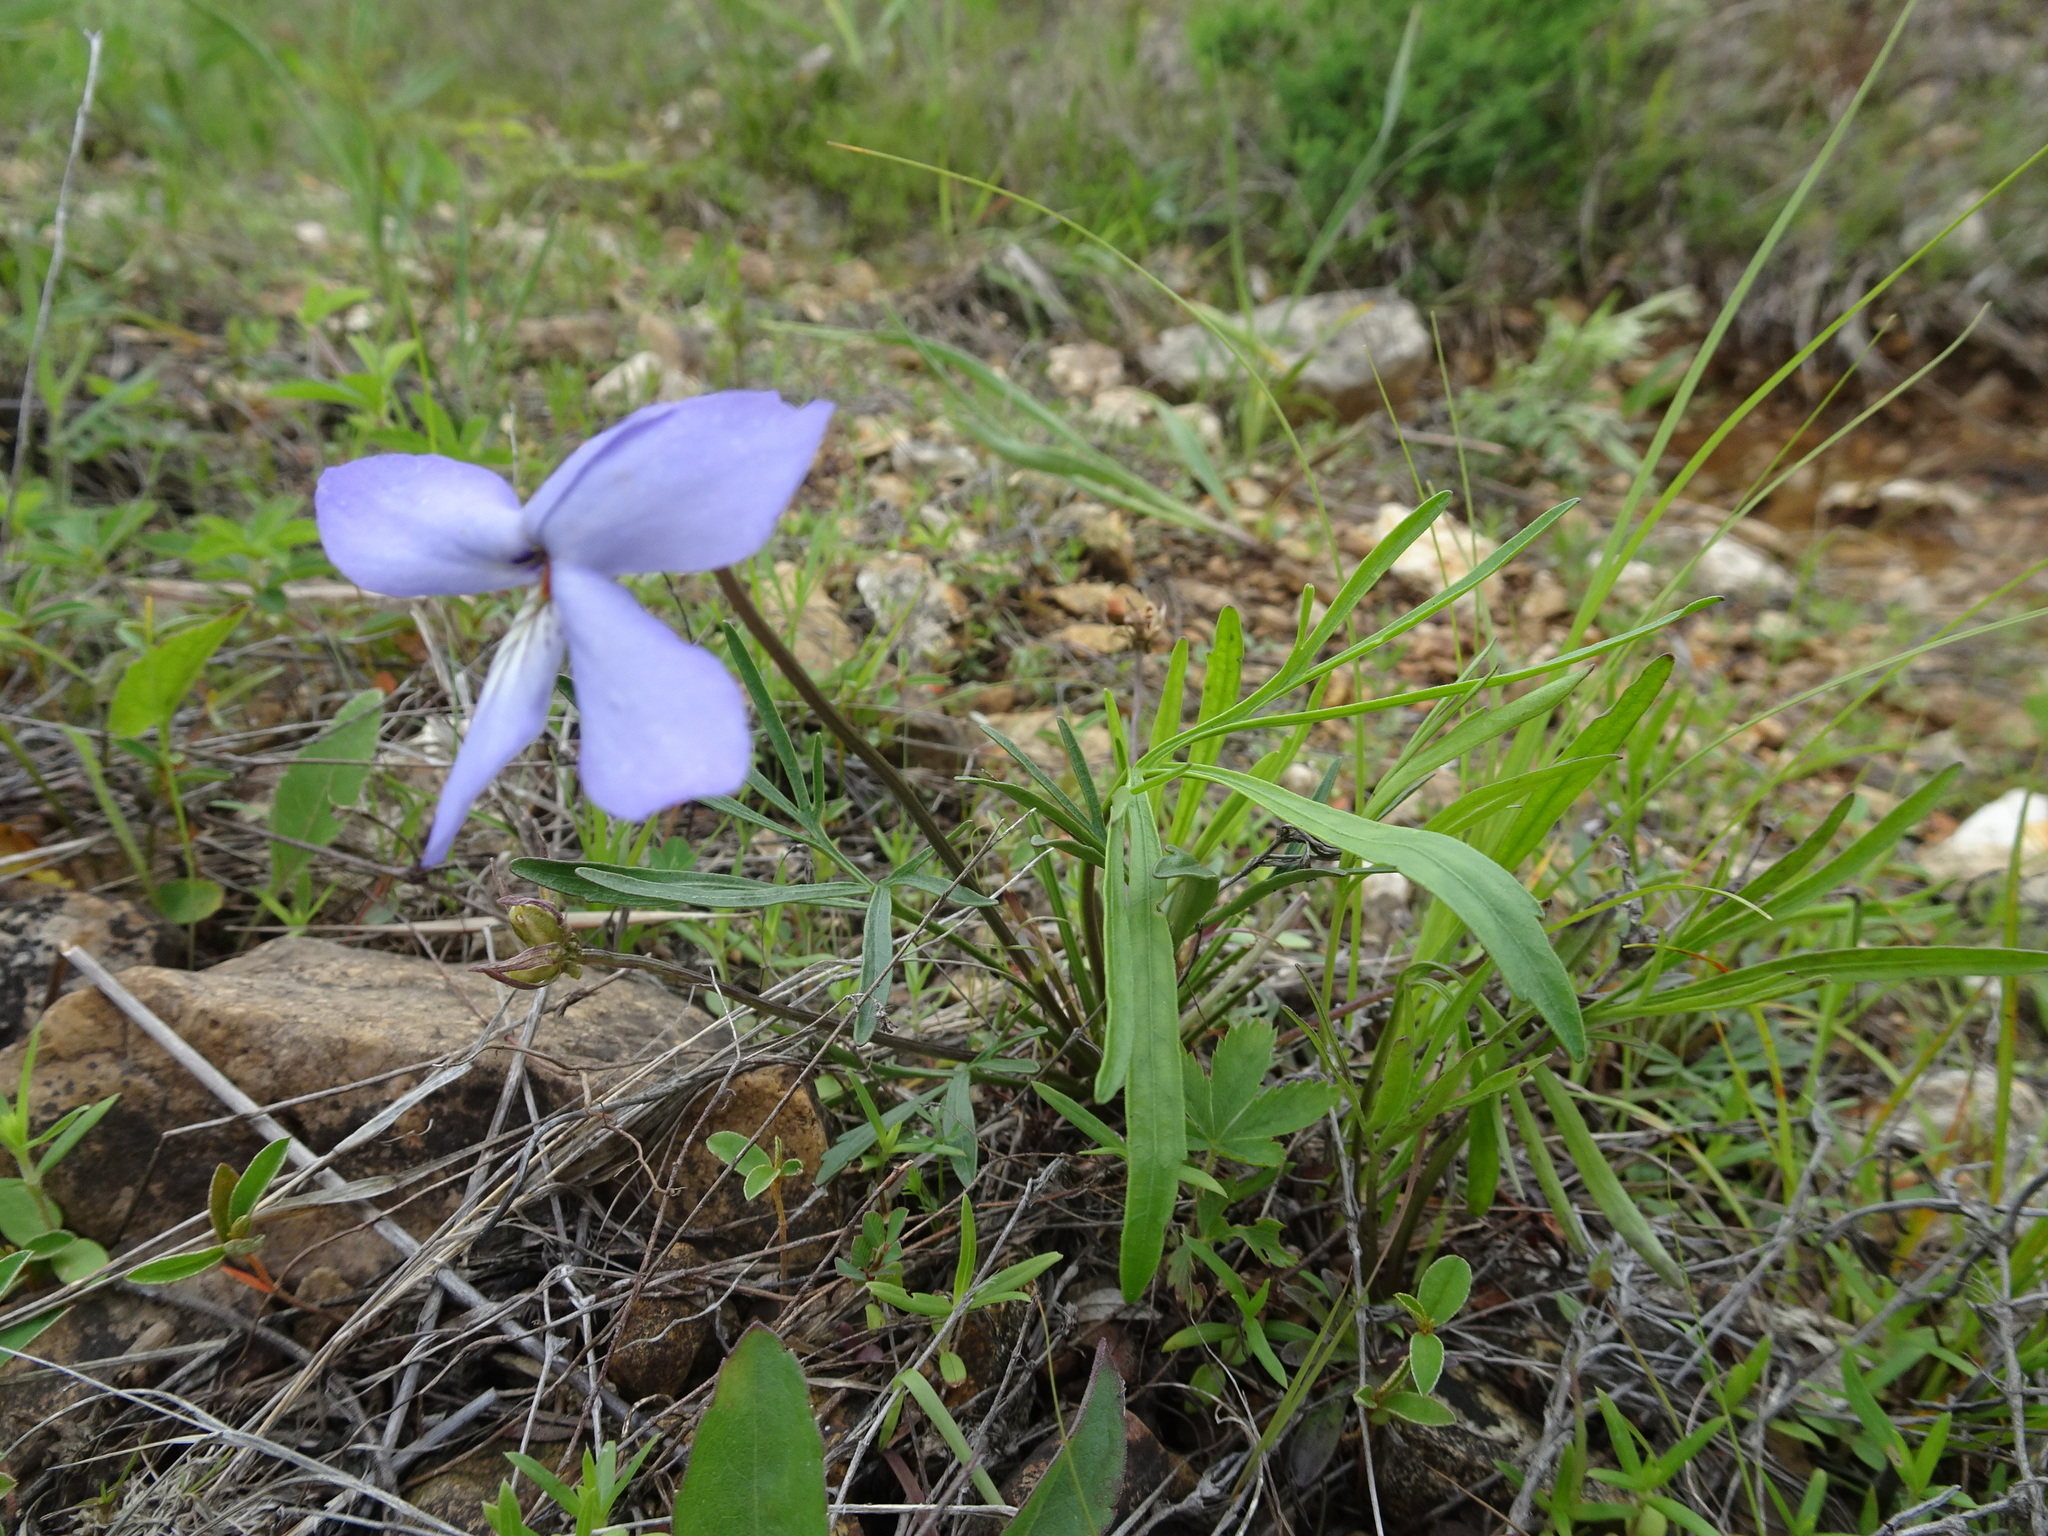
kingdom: Plantae
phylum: Tracheophyta
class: Magnoliopsida
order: Malpighiales
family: Violaceae
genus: Viola
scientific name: Viola pedata
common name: Pansy violet
